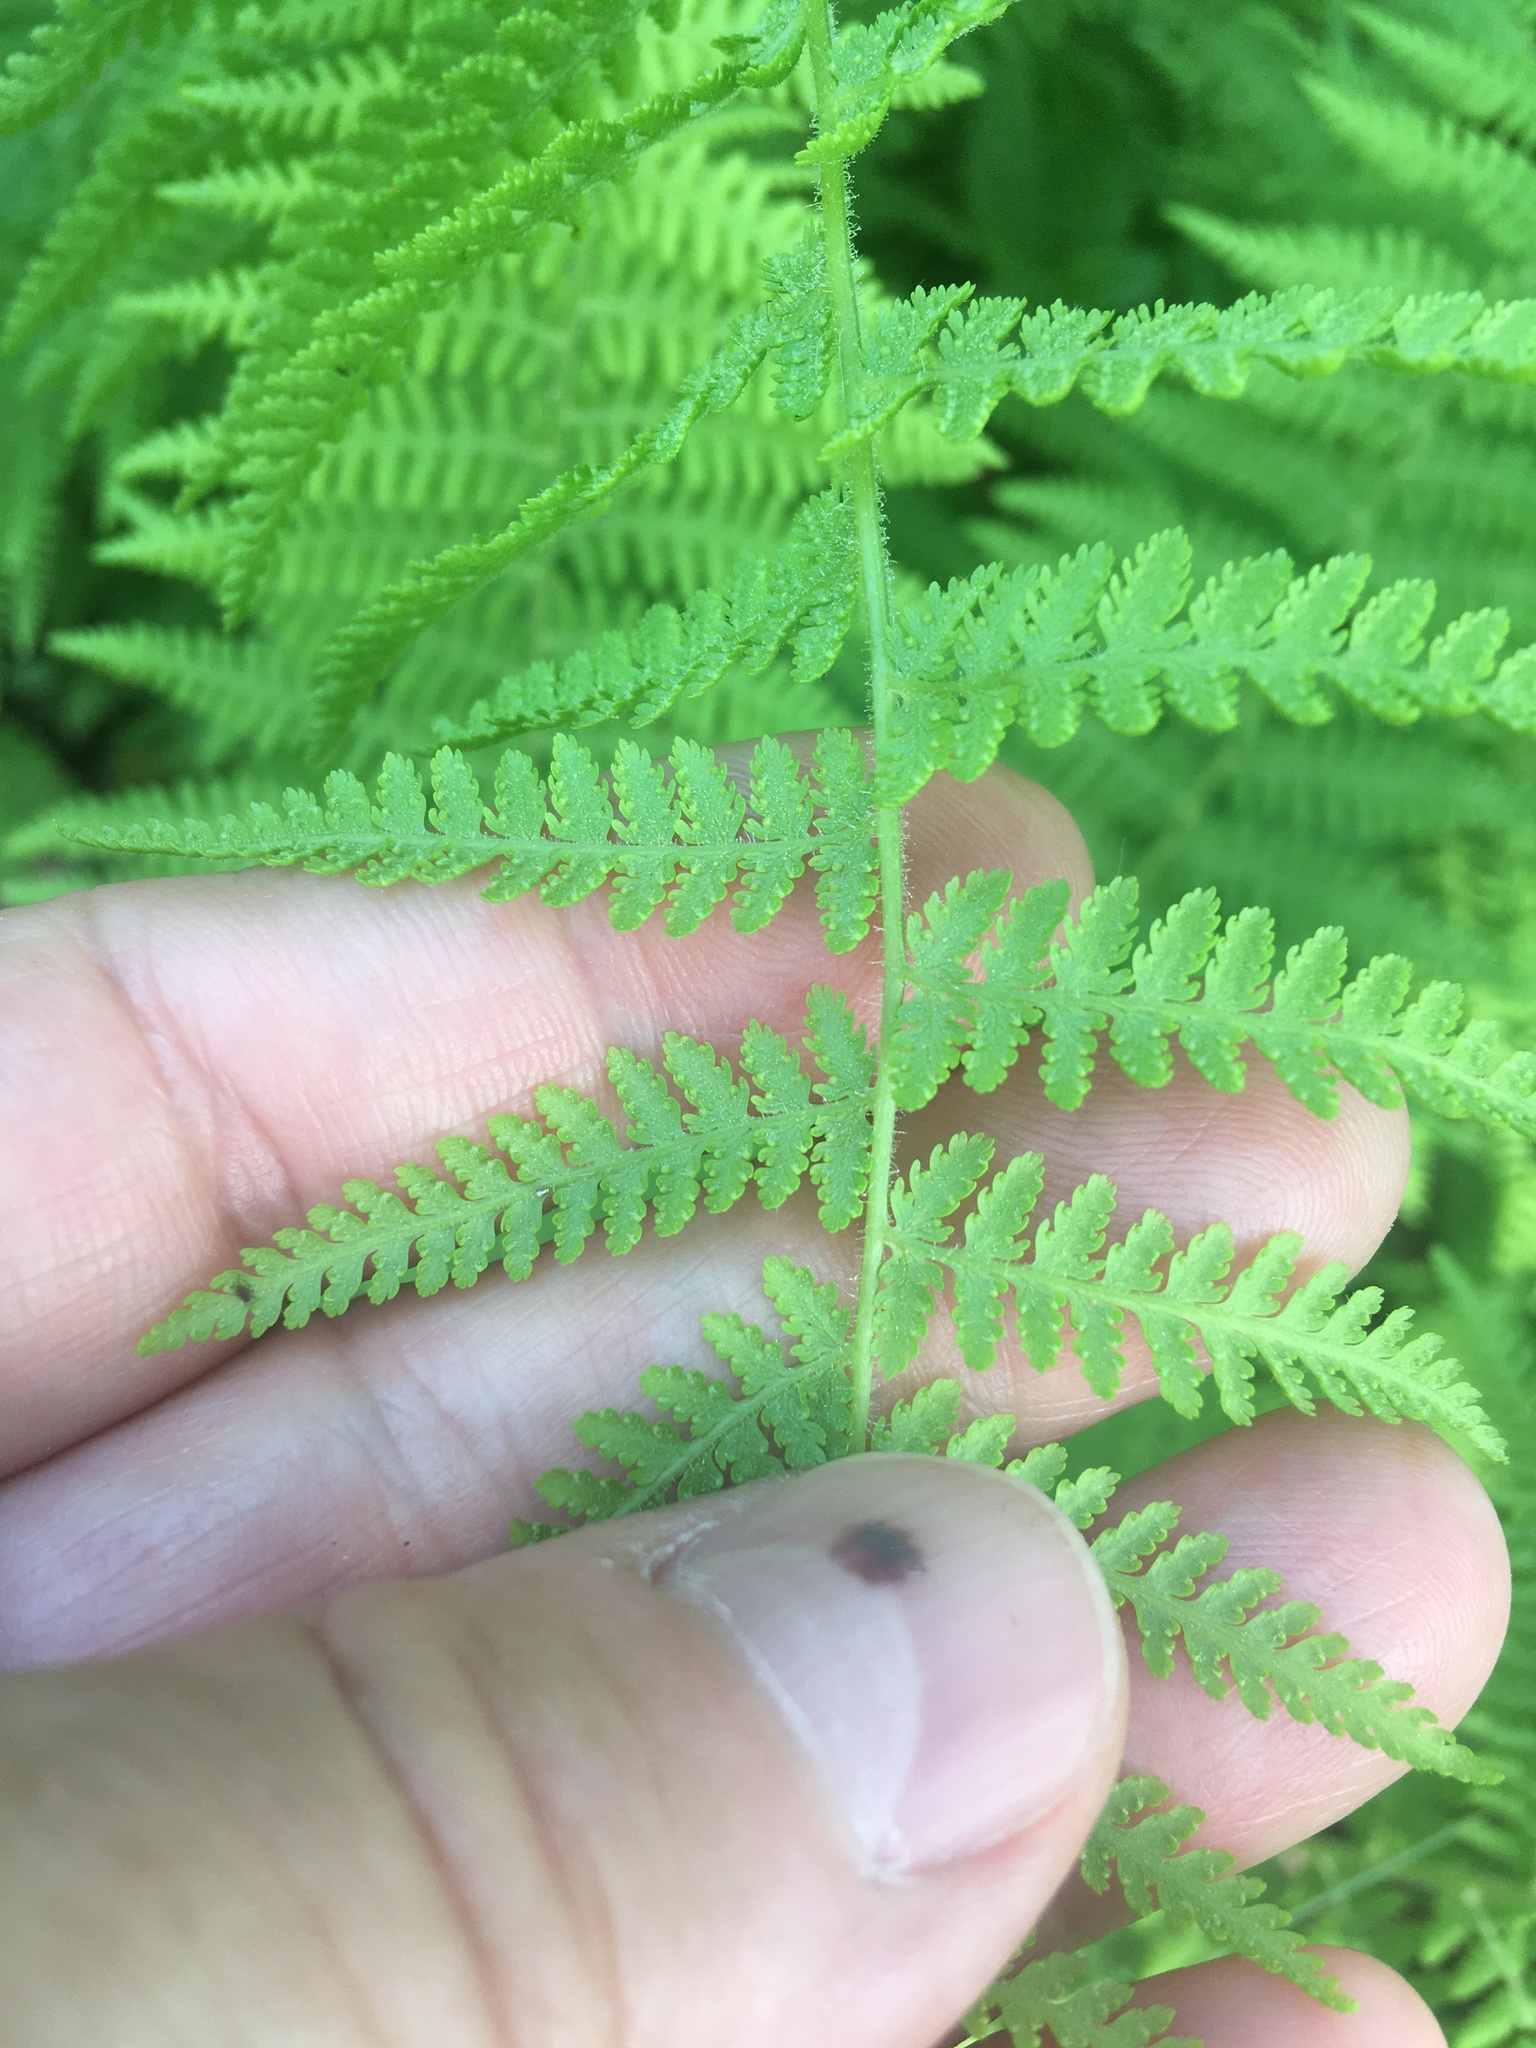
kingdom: Plantae
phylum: Tracheophyta
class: Polypodiopsida
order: Polypodiales
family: Dennstaedtiaceae
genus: Sitobolium
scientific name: Sitobolium punctilobum
